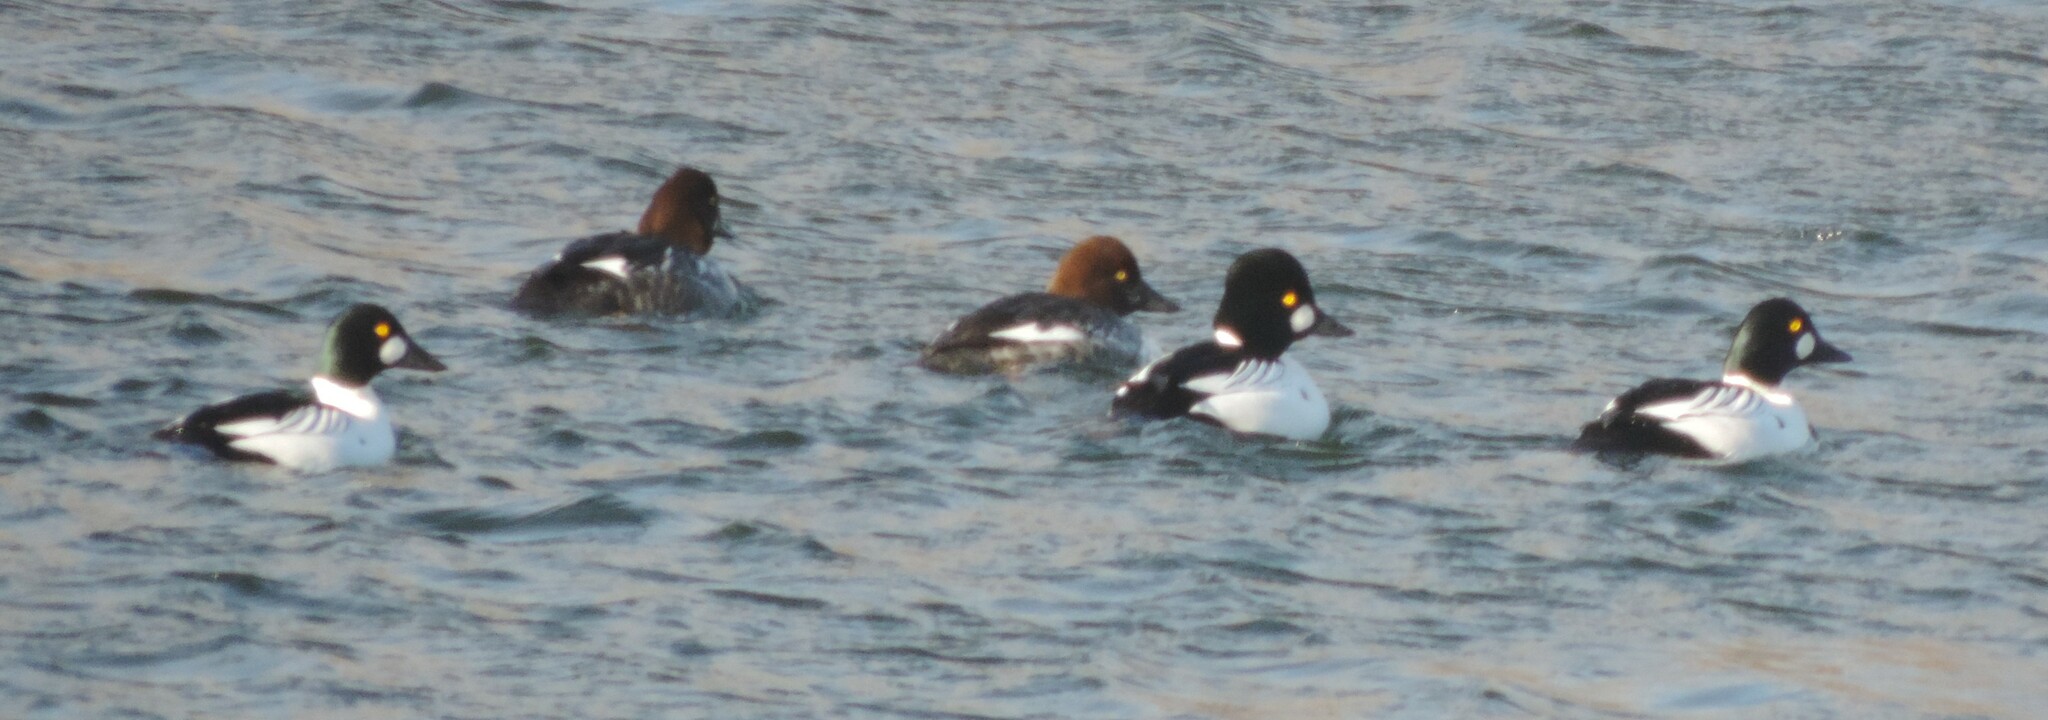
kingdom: Animalia
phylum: Chordata
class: Aves
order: Anseriformes
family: Anatidae
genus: Bucephala
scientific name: Bucephala clangula
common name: Common goldeneye
